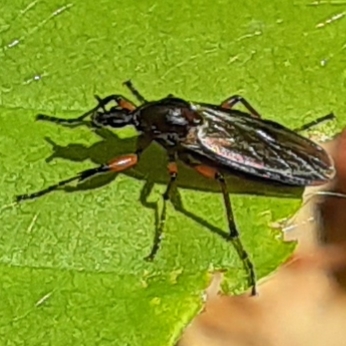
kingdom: Animalia
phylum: Arthropoda
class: Insecta
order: Diptera
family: Bibionidae
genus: Bibio
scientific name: Bibio
